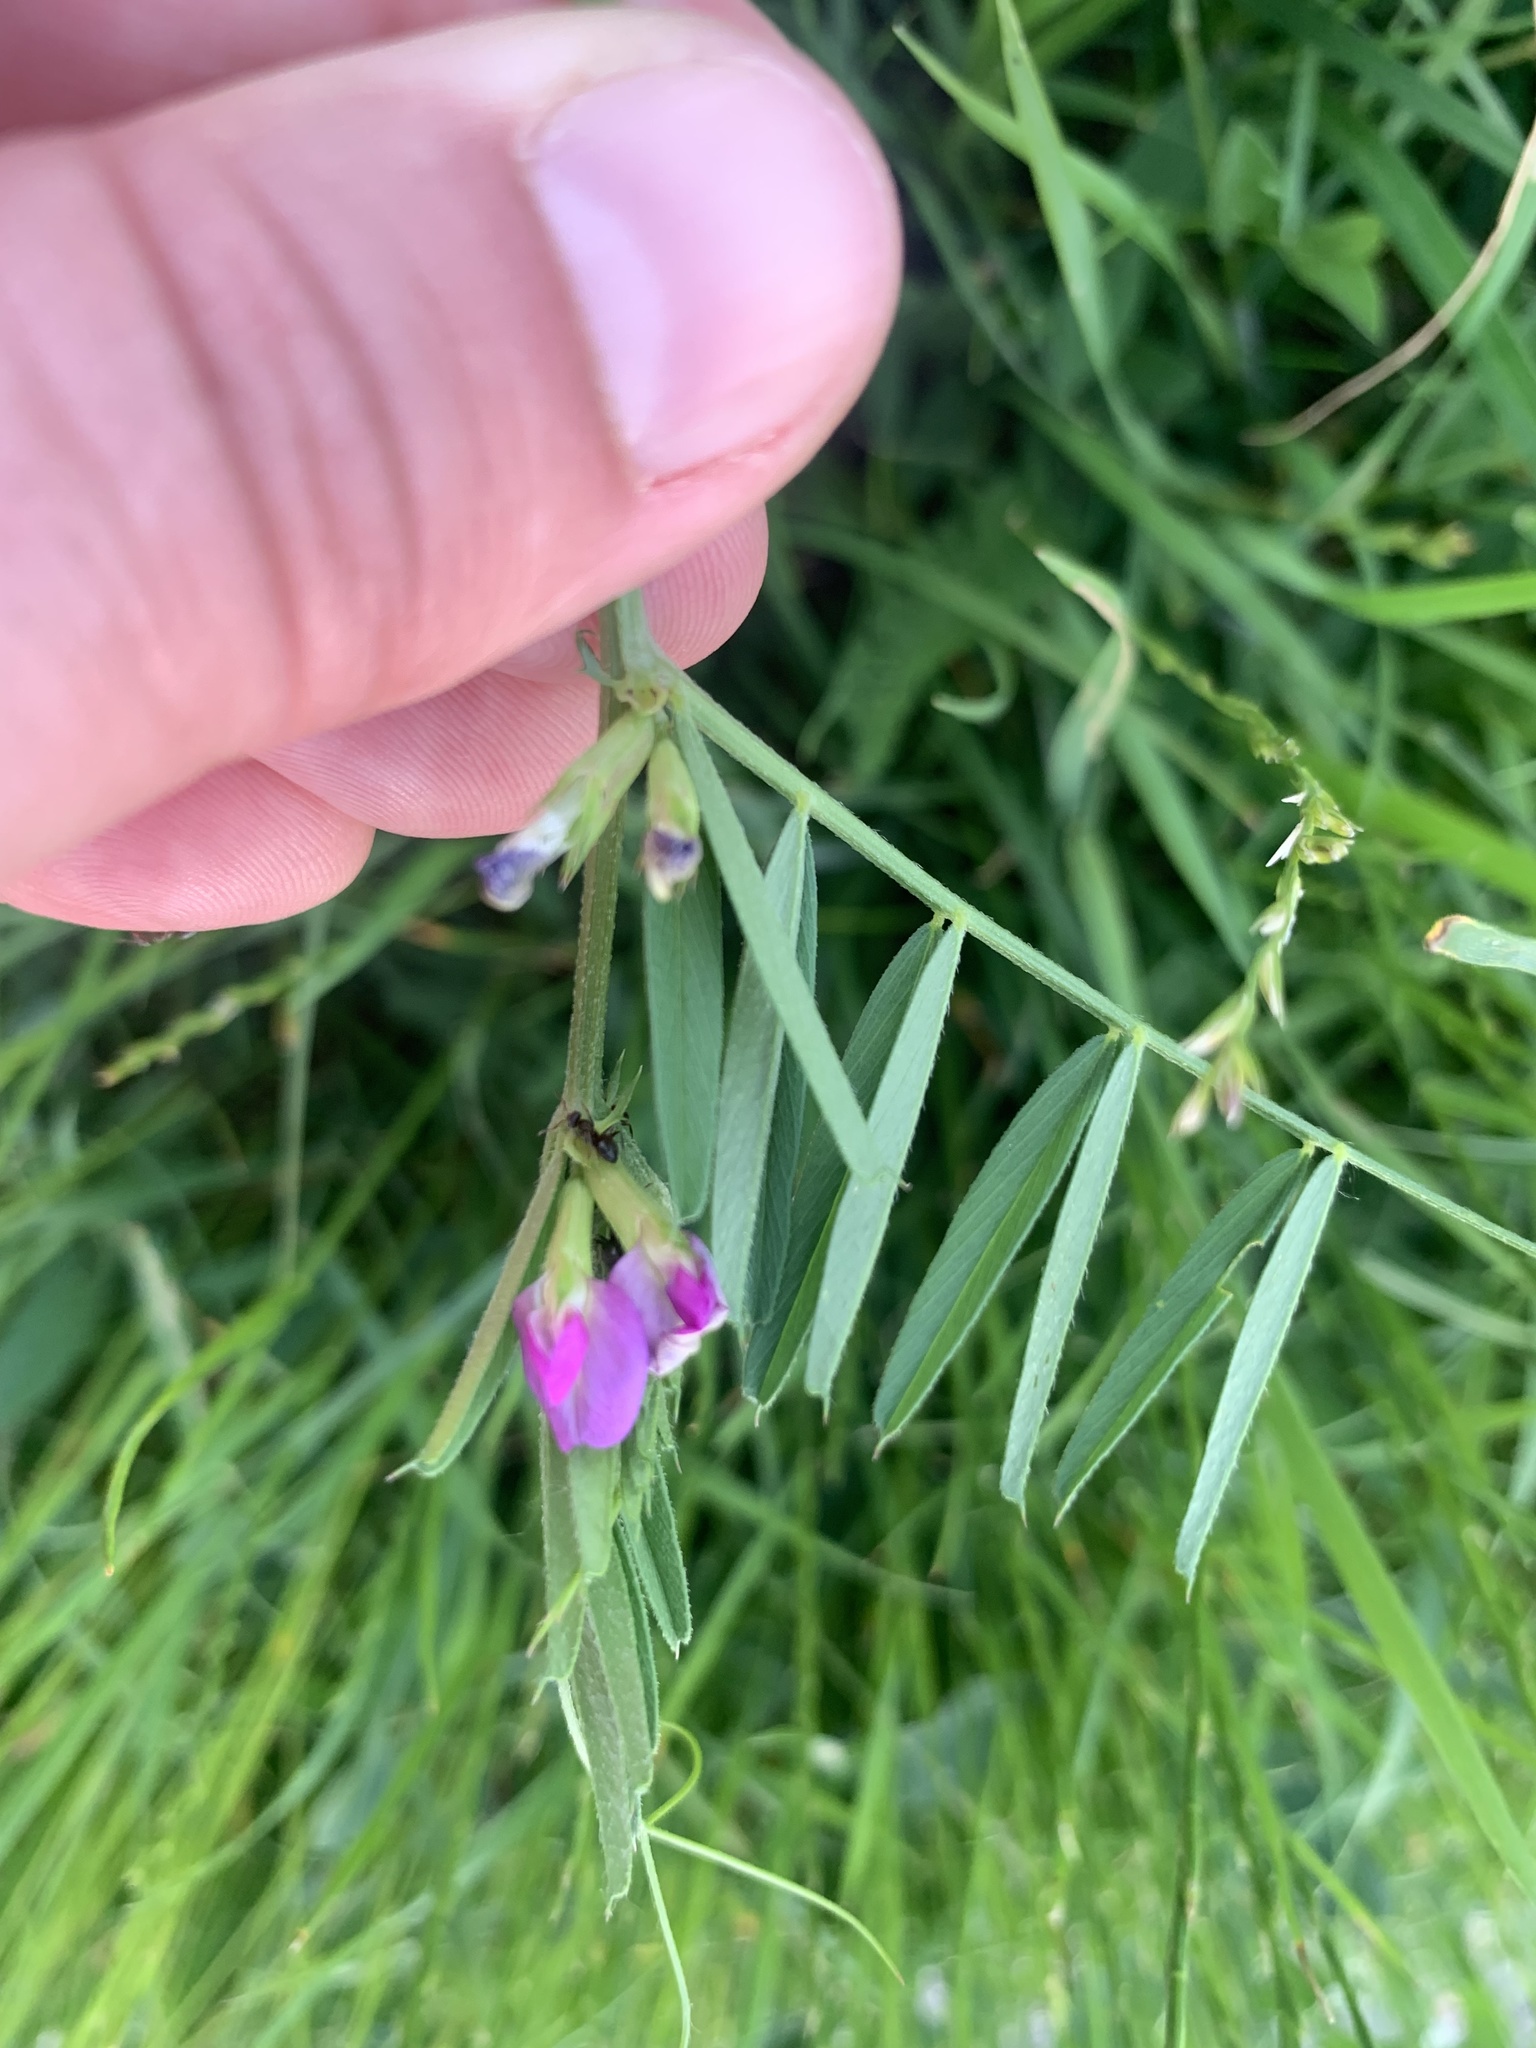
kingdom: Plantae
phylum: Tracheophyta
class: Magnoliopsida
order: Fabales
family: Fabaceae
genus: Vicia
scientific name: Vicia sativa
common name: Garden vetch
